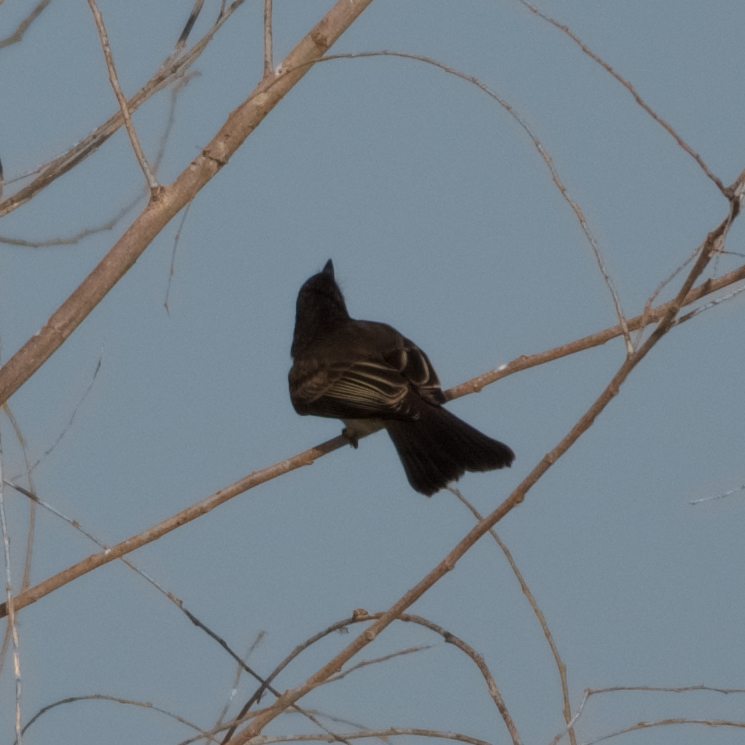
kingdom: Animalia
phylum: Chordata
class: Aves
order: Passeriformes
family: Tyrannidae
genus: Sayornis
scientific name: Sayornis nigricans
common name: Black phoebe
